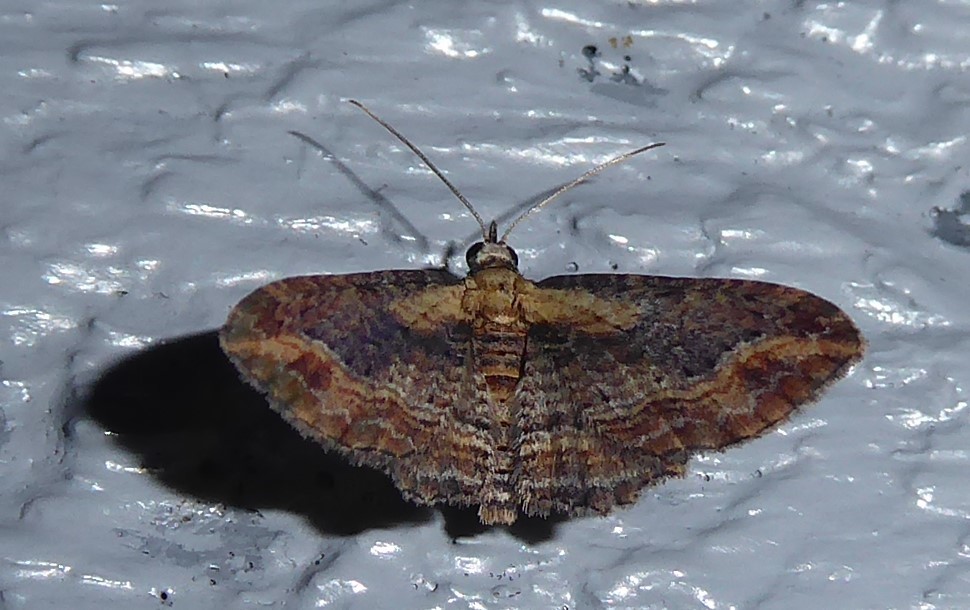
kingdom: Animalia
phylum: Arthropoda
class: Insecta
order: Lepidoptera
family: Geometridae
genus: Chloroclystis
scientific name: Chloroclystis filata
